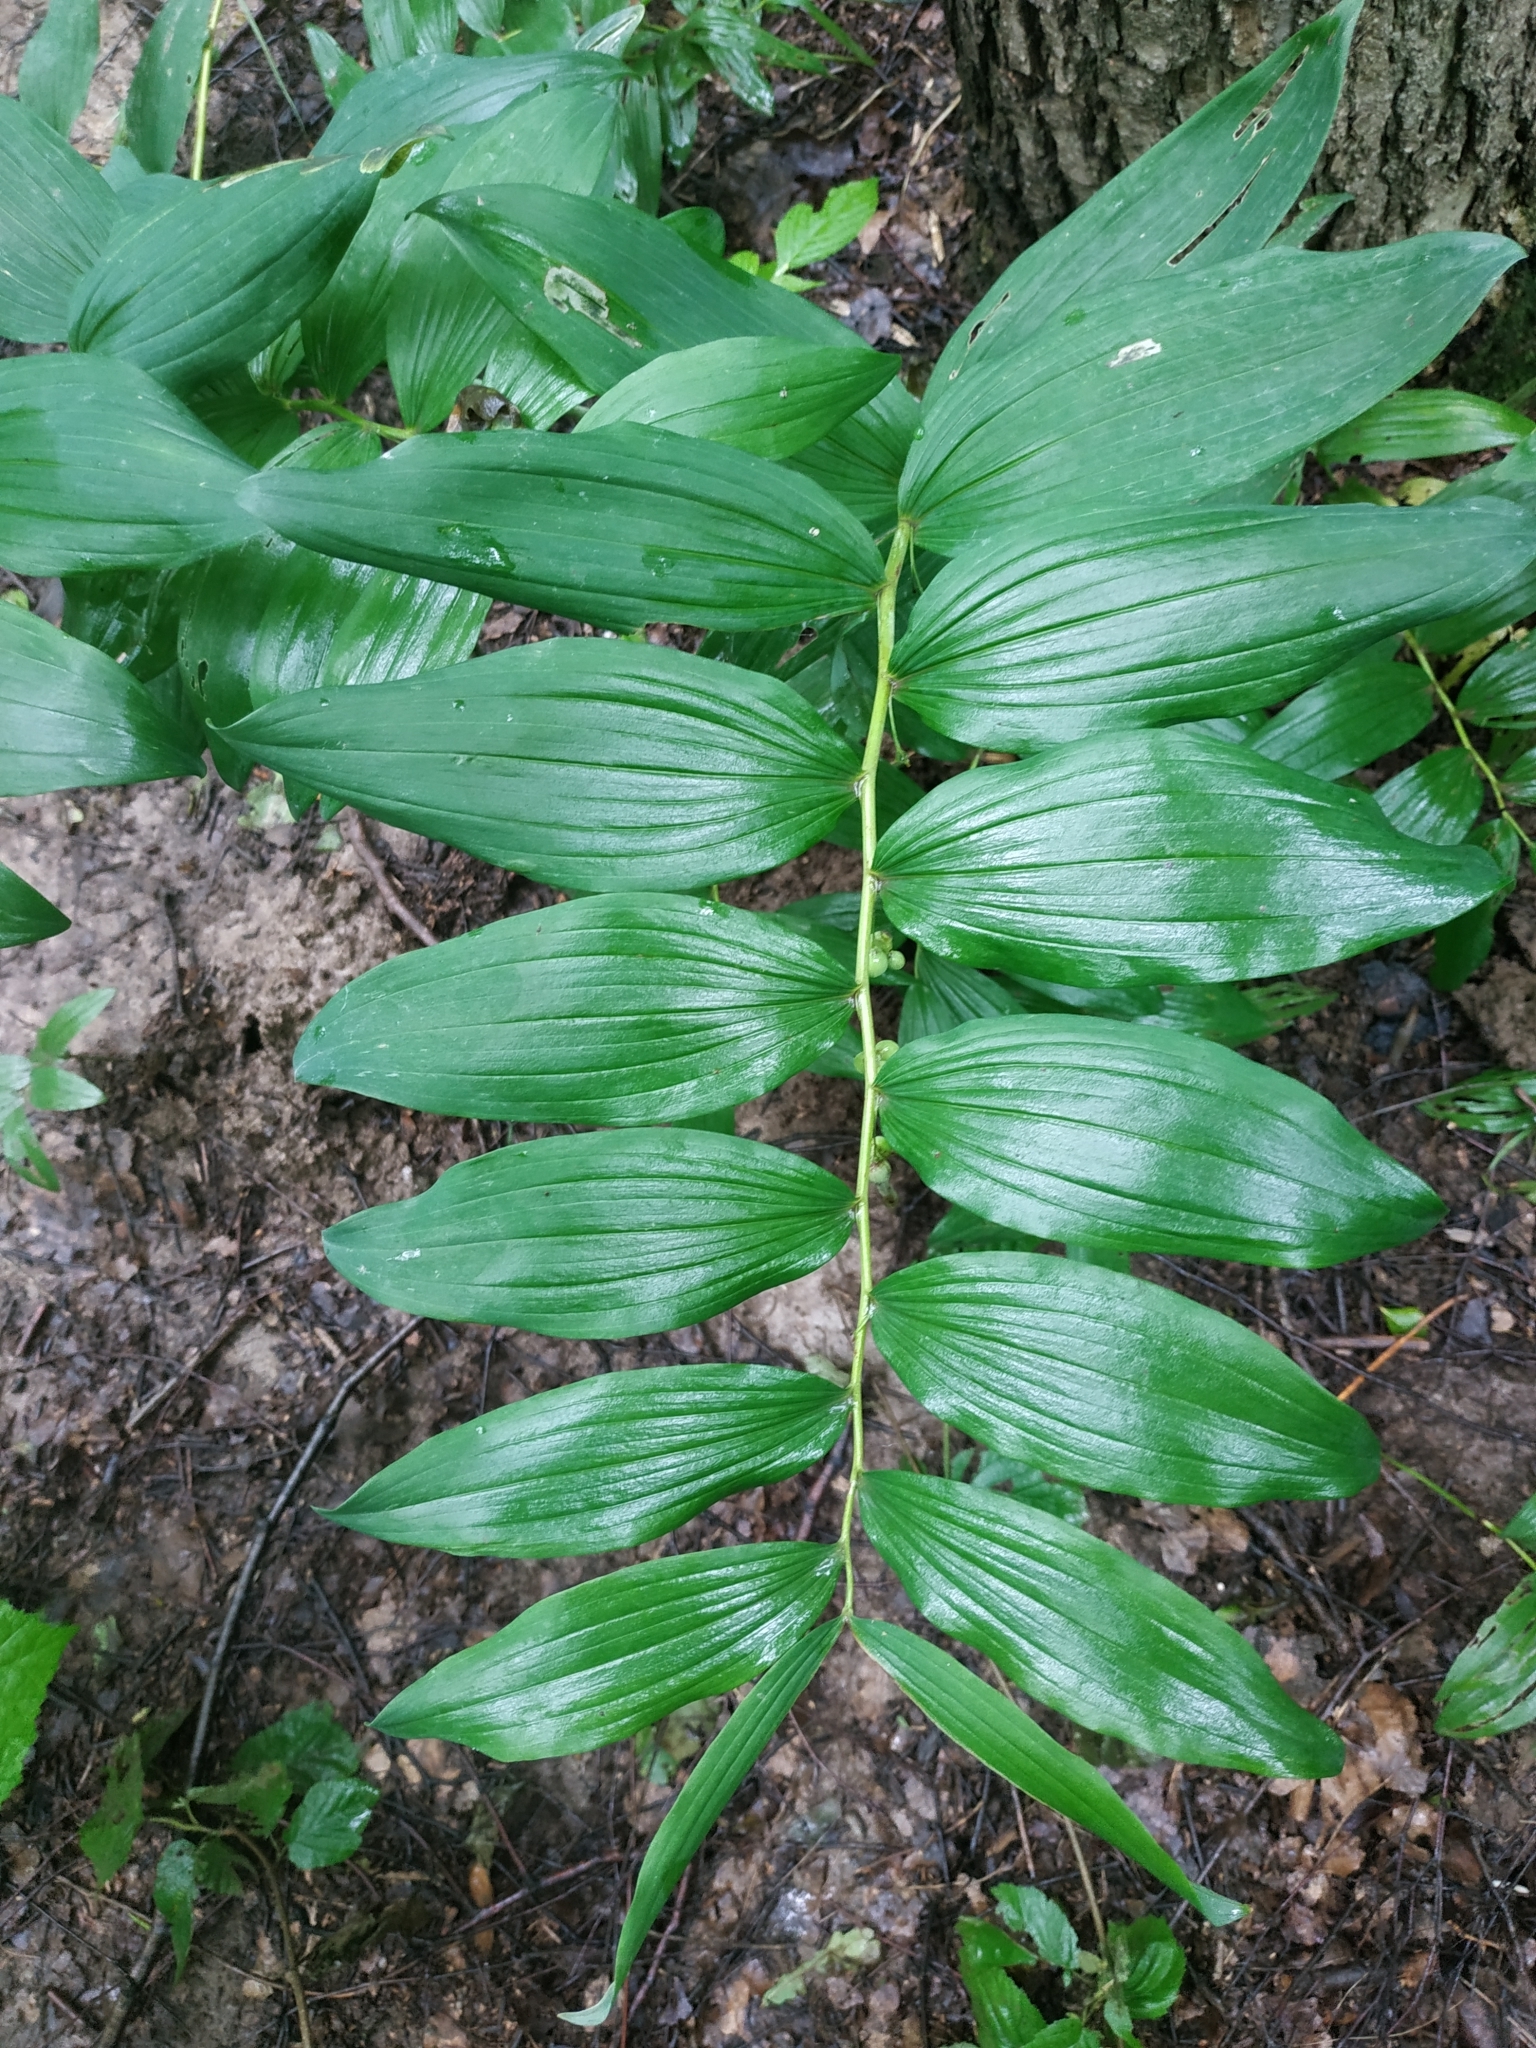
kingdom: Plantae
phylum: Tracheophyta
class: Liliopsida
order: Asparagales
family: Asparagaceae
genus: Polygonatum
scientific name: Polygonatum multiflorum
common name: Solomon's-seal
